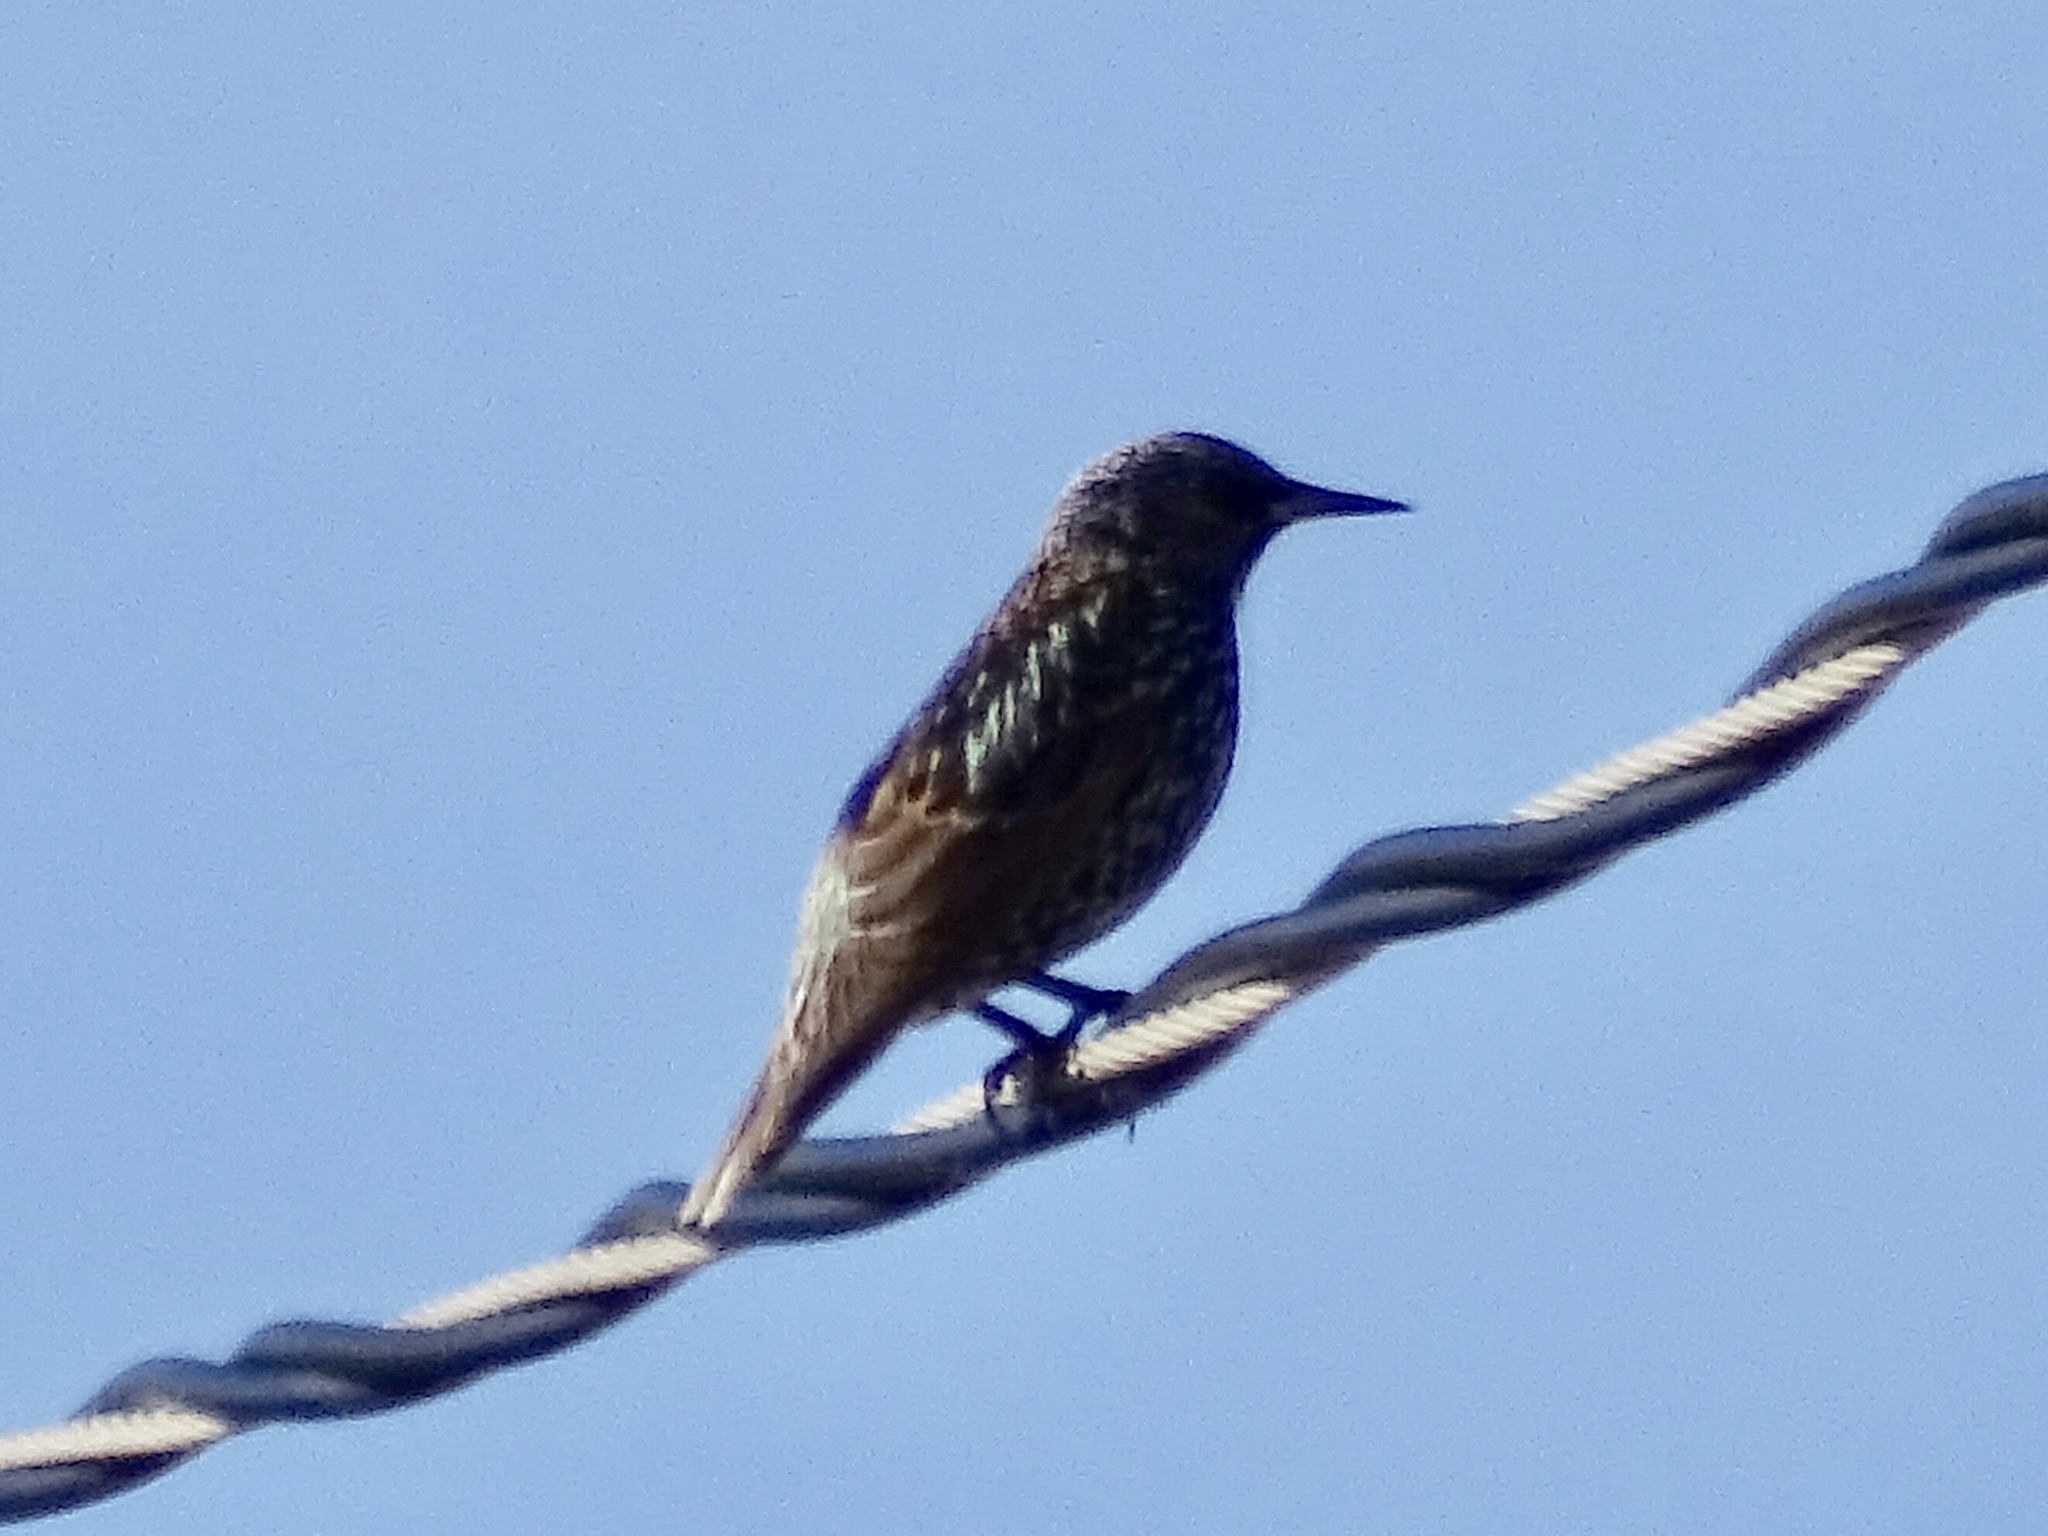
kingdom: Animalia
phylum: Chordata
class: Aves
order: Passeriformes
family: Sturnidae
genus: Sturnus
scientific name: Sturnus vulgaris
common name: Common starling
